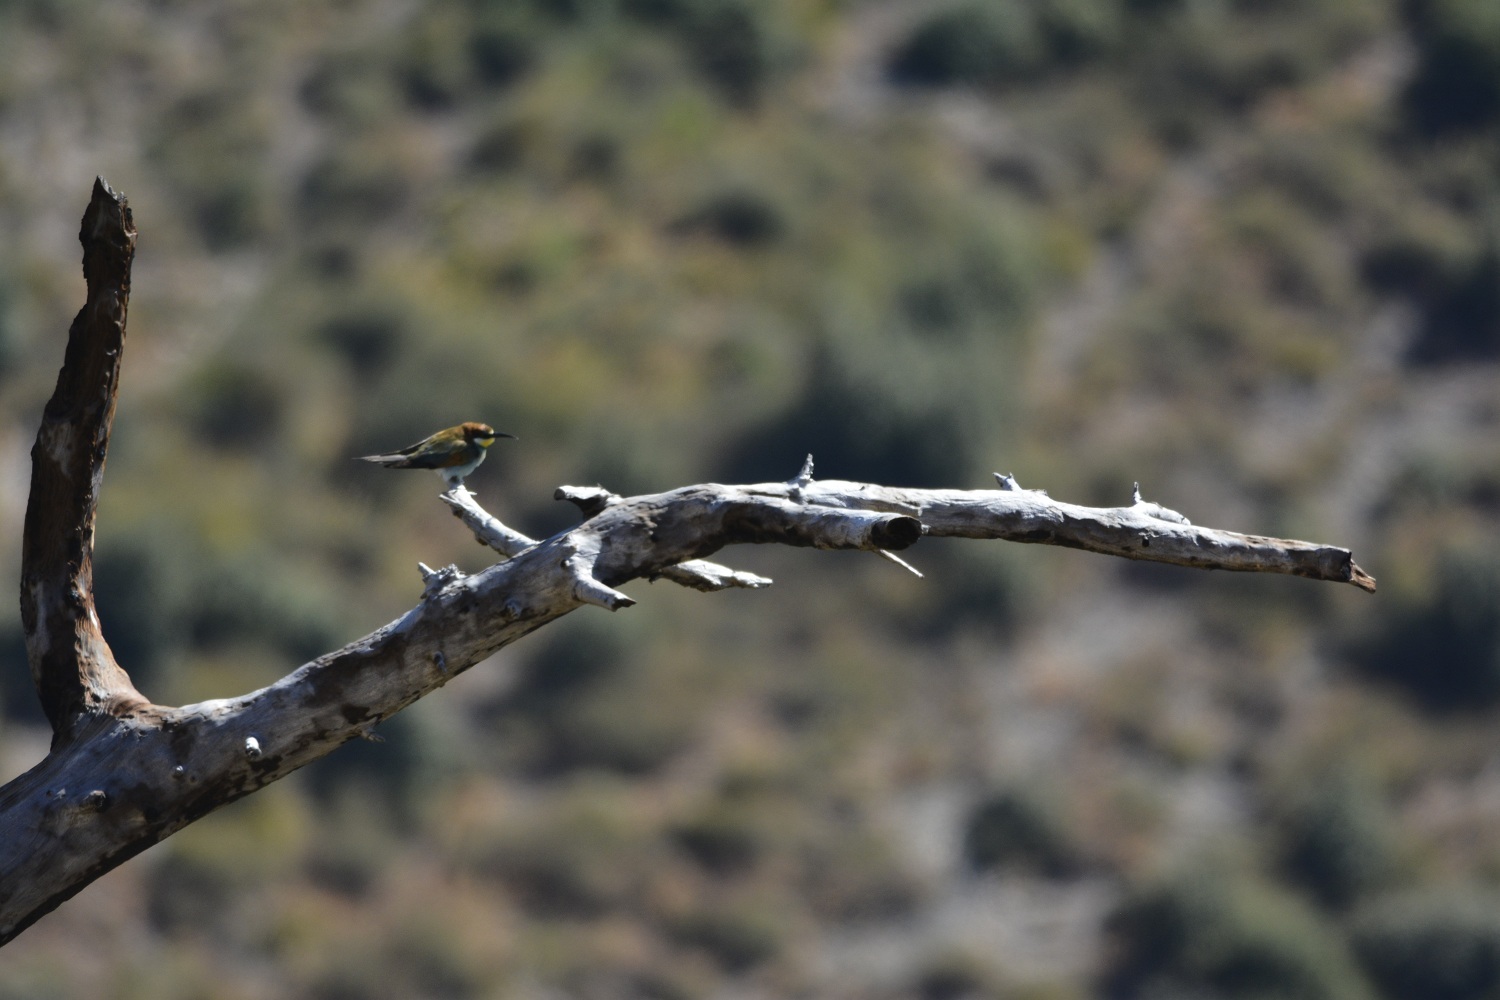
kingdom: Animalia
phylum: Chordata
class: Aves
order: Coraciiformes
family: Meropidae
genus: Merops
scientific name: Merops apiaster
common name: European bee-eater
